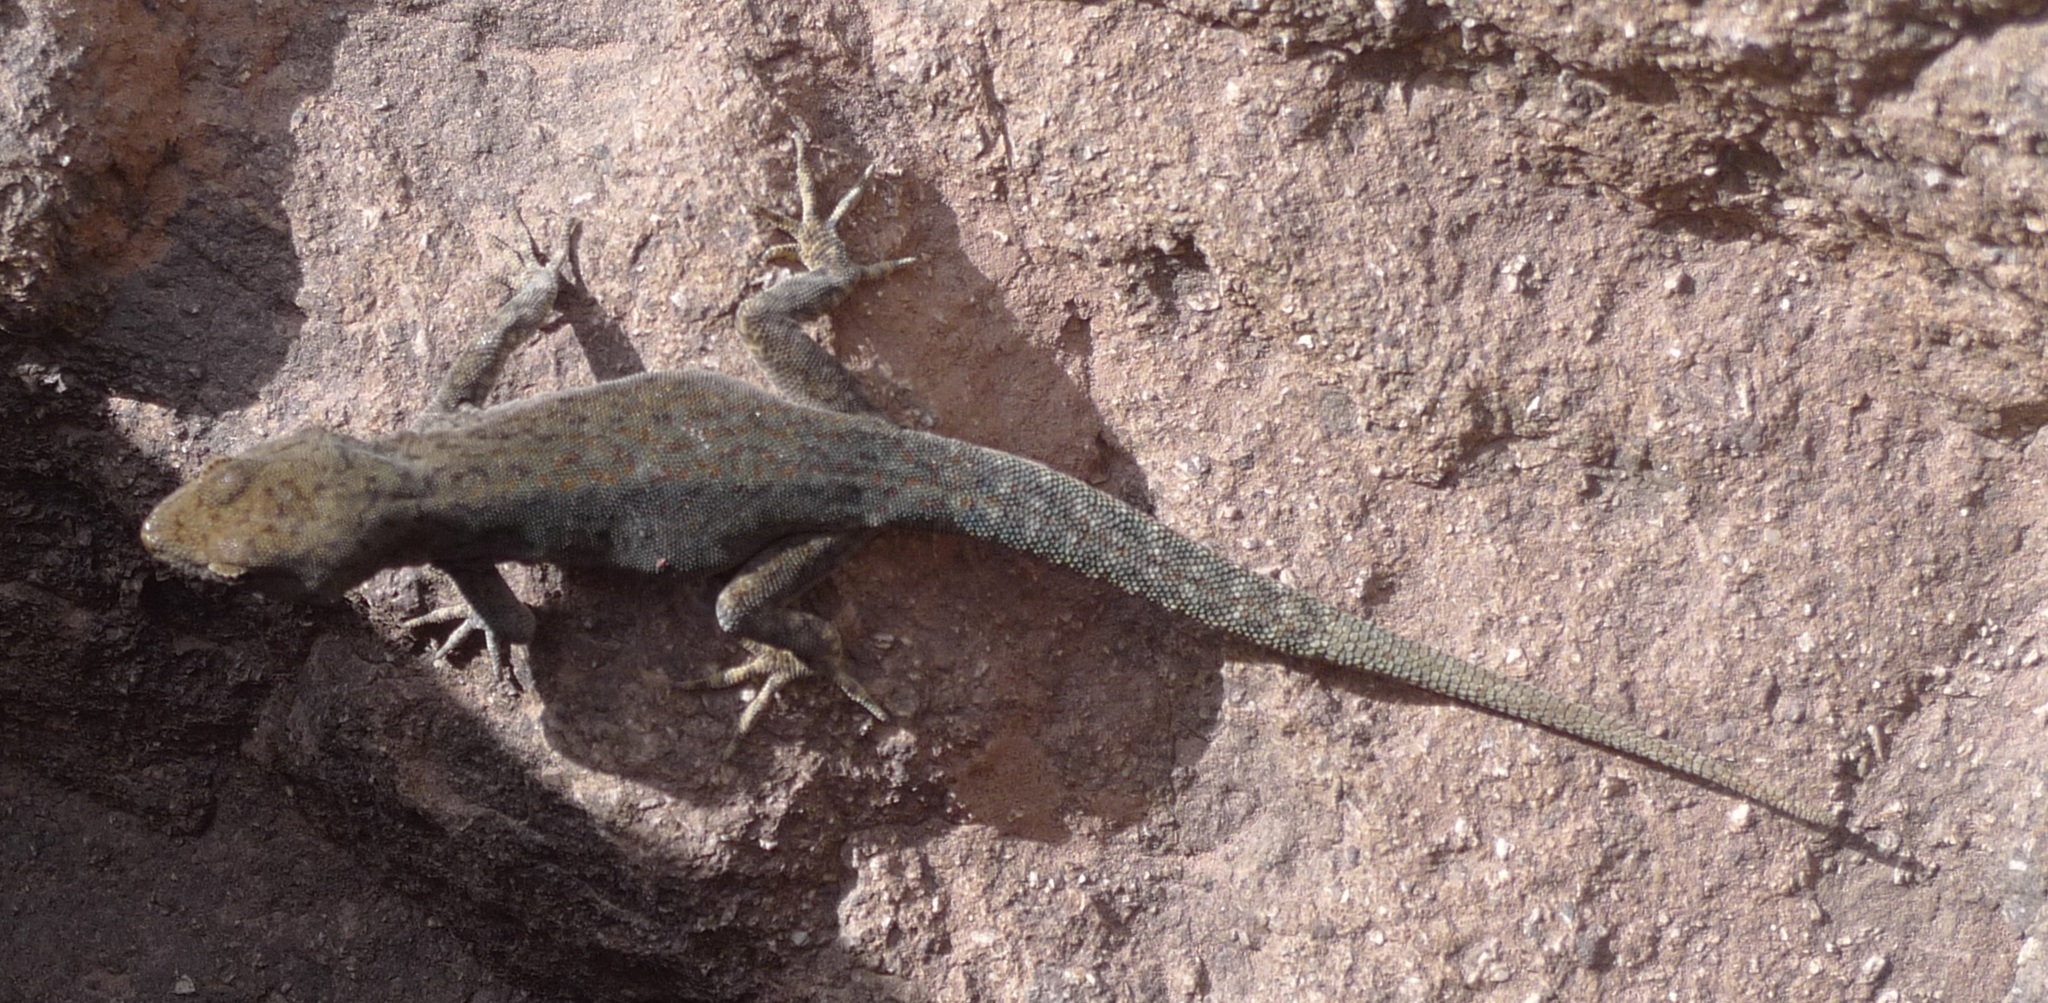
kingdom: Animalia
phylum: Chordata
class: Squamata
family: Sphaerodactylidae
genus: Quedenfeldtia
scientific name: Quedenfeldtia trachyblepharus
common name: Atlas day gecko
